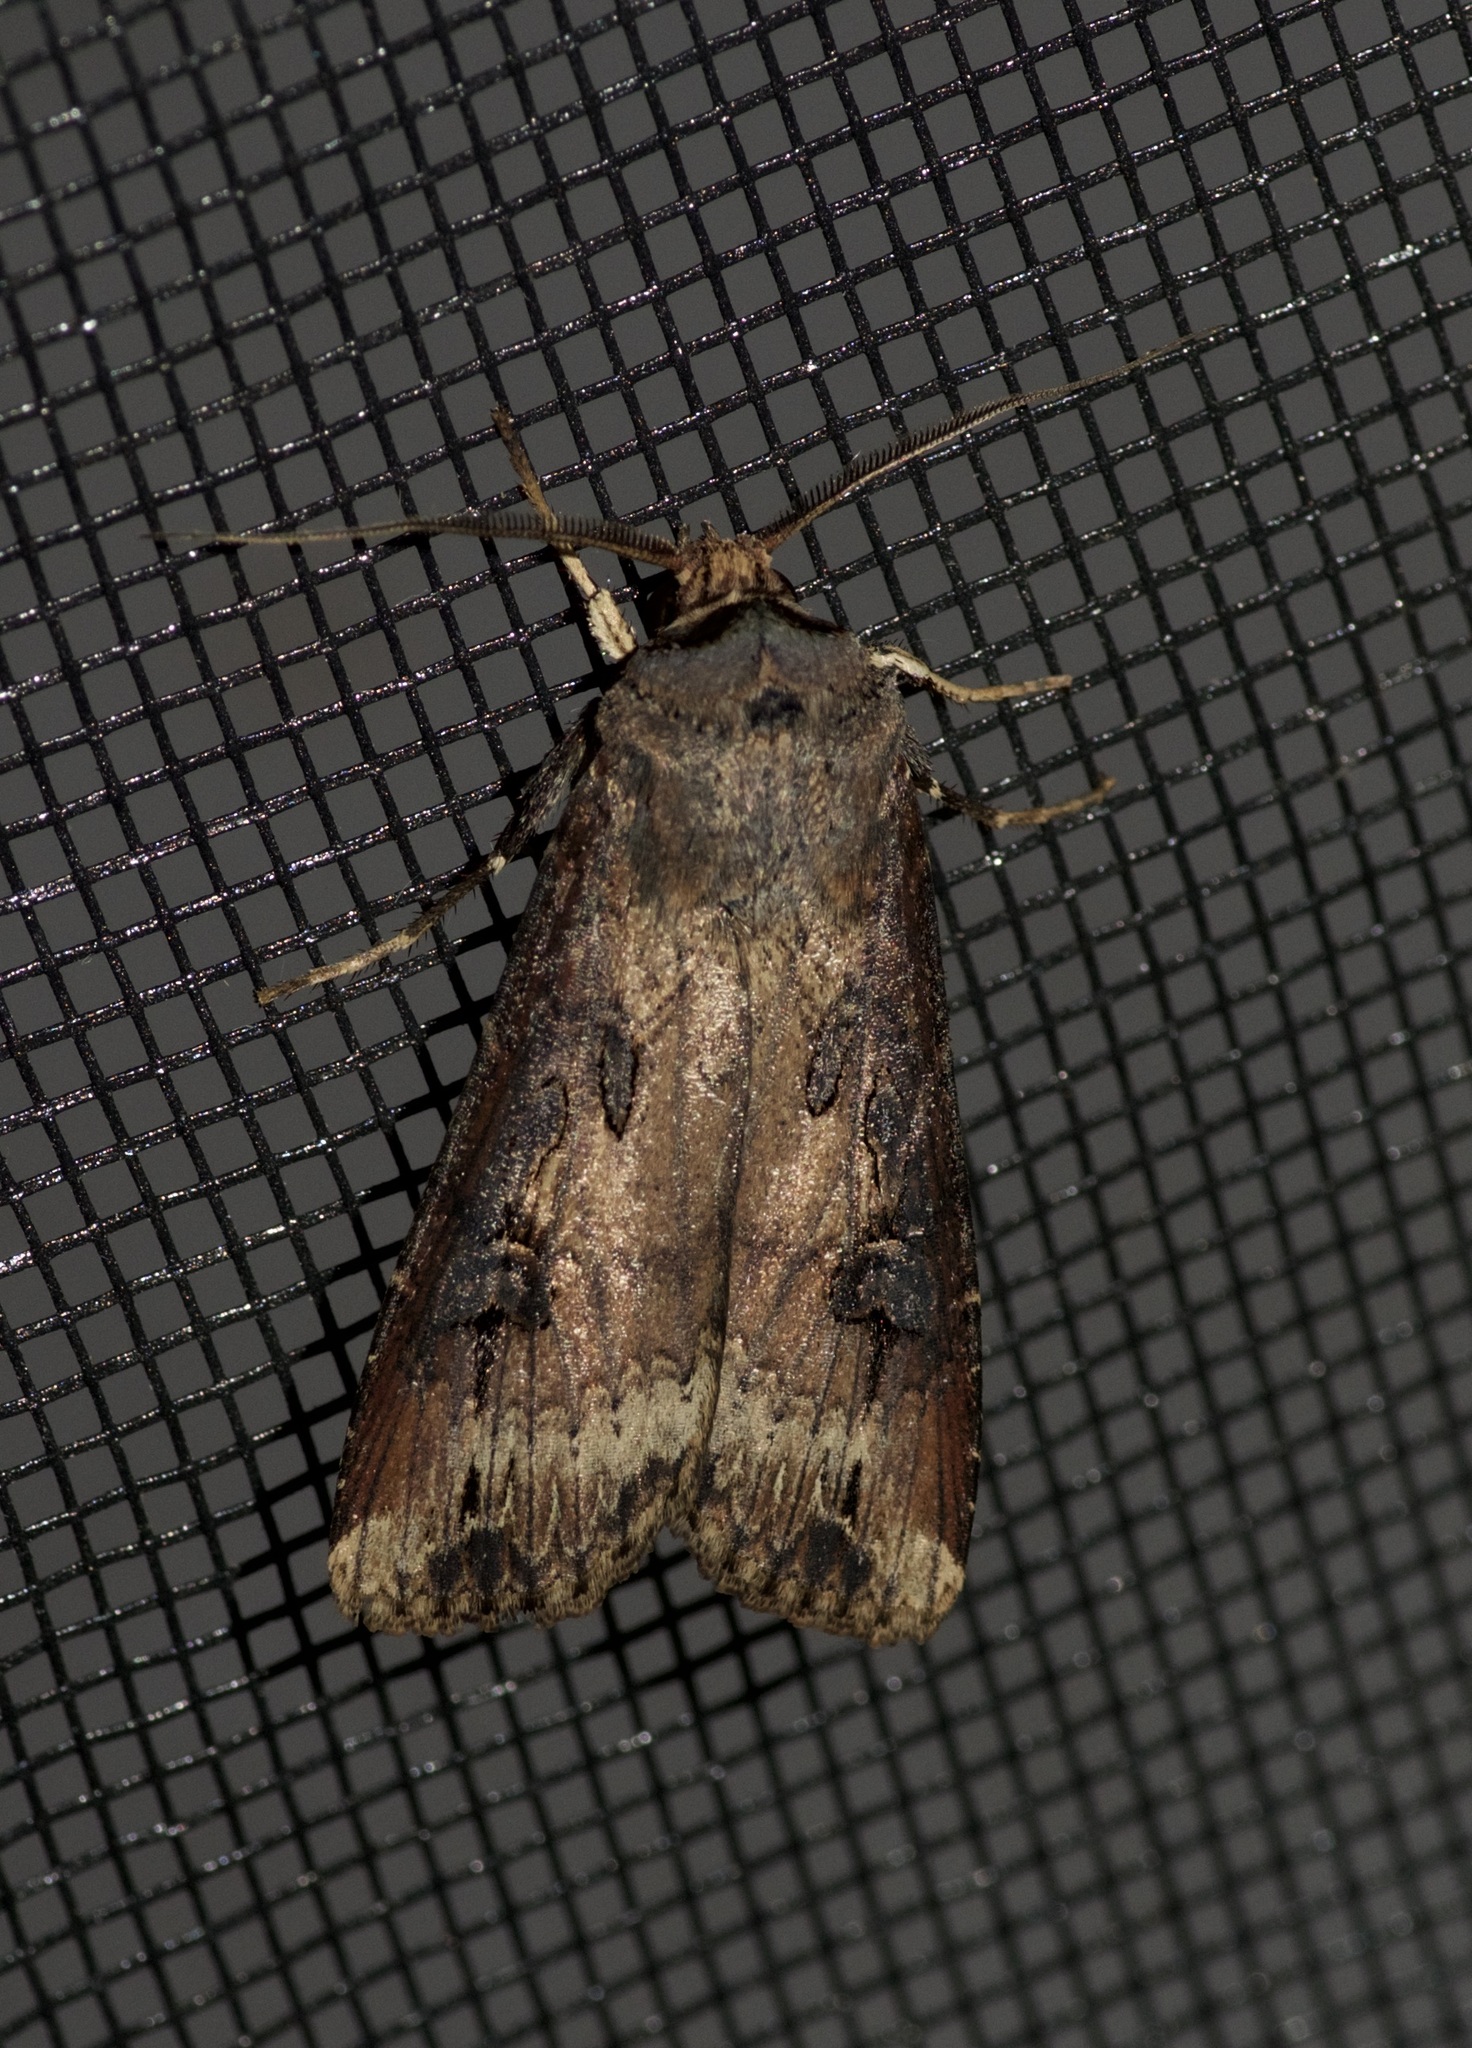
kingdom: Animalia
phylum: Arthropoda
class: Insecta
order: Lepidoptera
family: Noctuidae
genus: Agrotis
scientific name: Agrotis ipsilon
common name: Dark sword-grass
